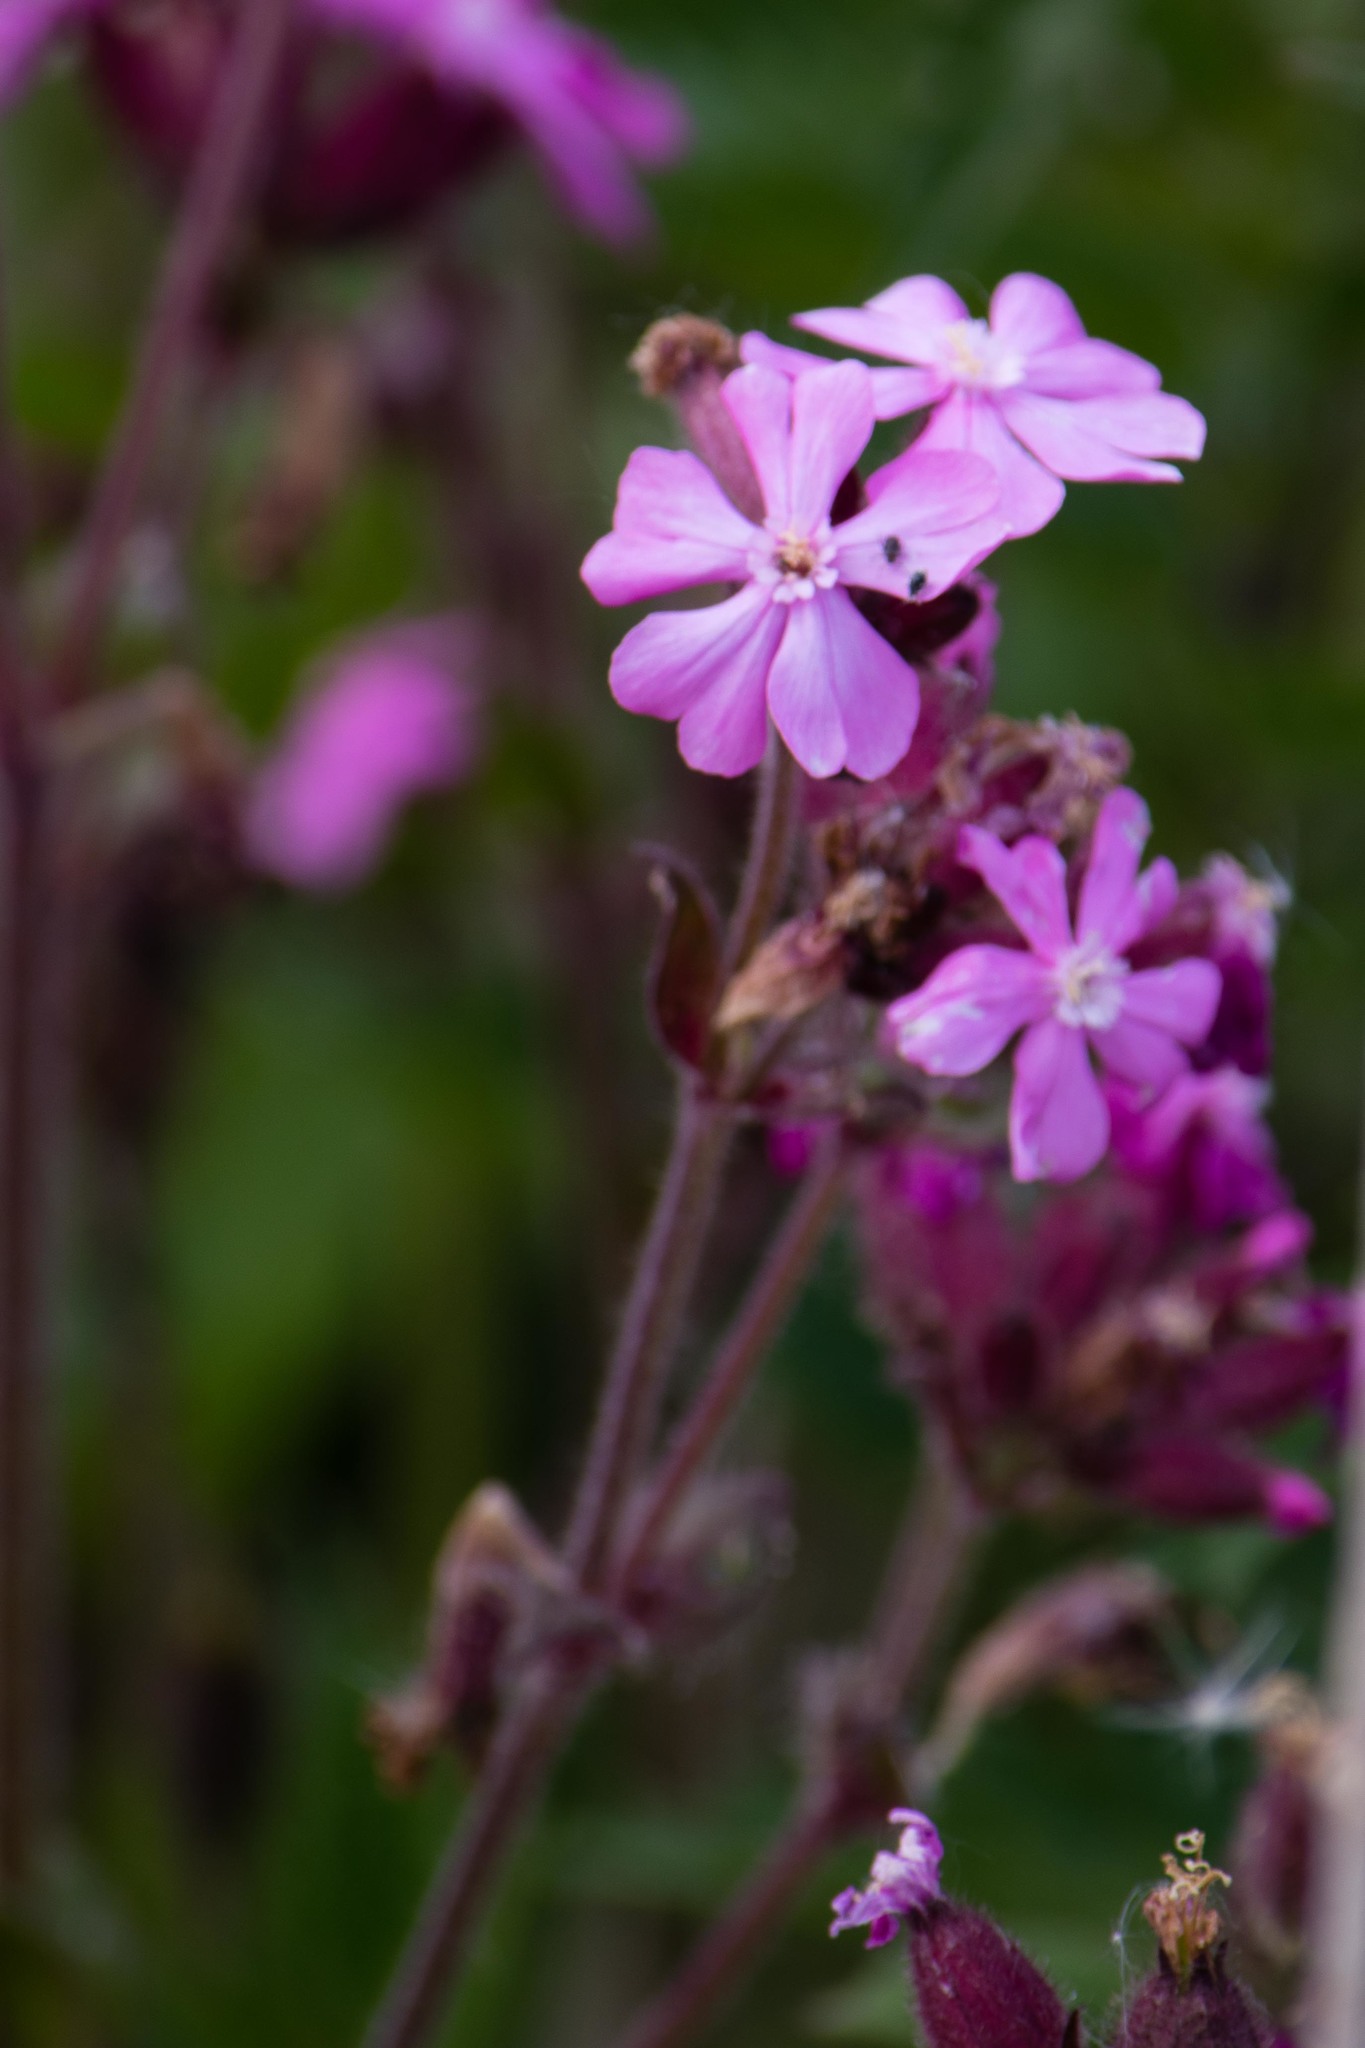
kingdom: Plantae
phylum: Tracheophyta
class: Magnoliopsida
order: Caryophyllales
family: Caryophyllaceae
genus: Silene
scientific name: Silene dioica
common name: Red campion
